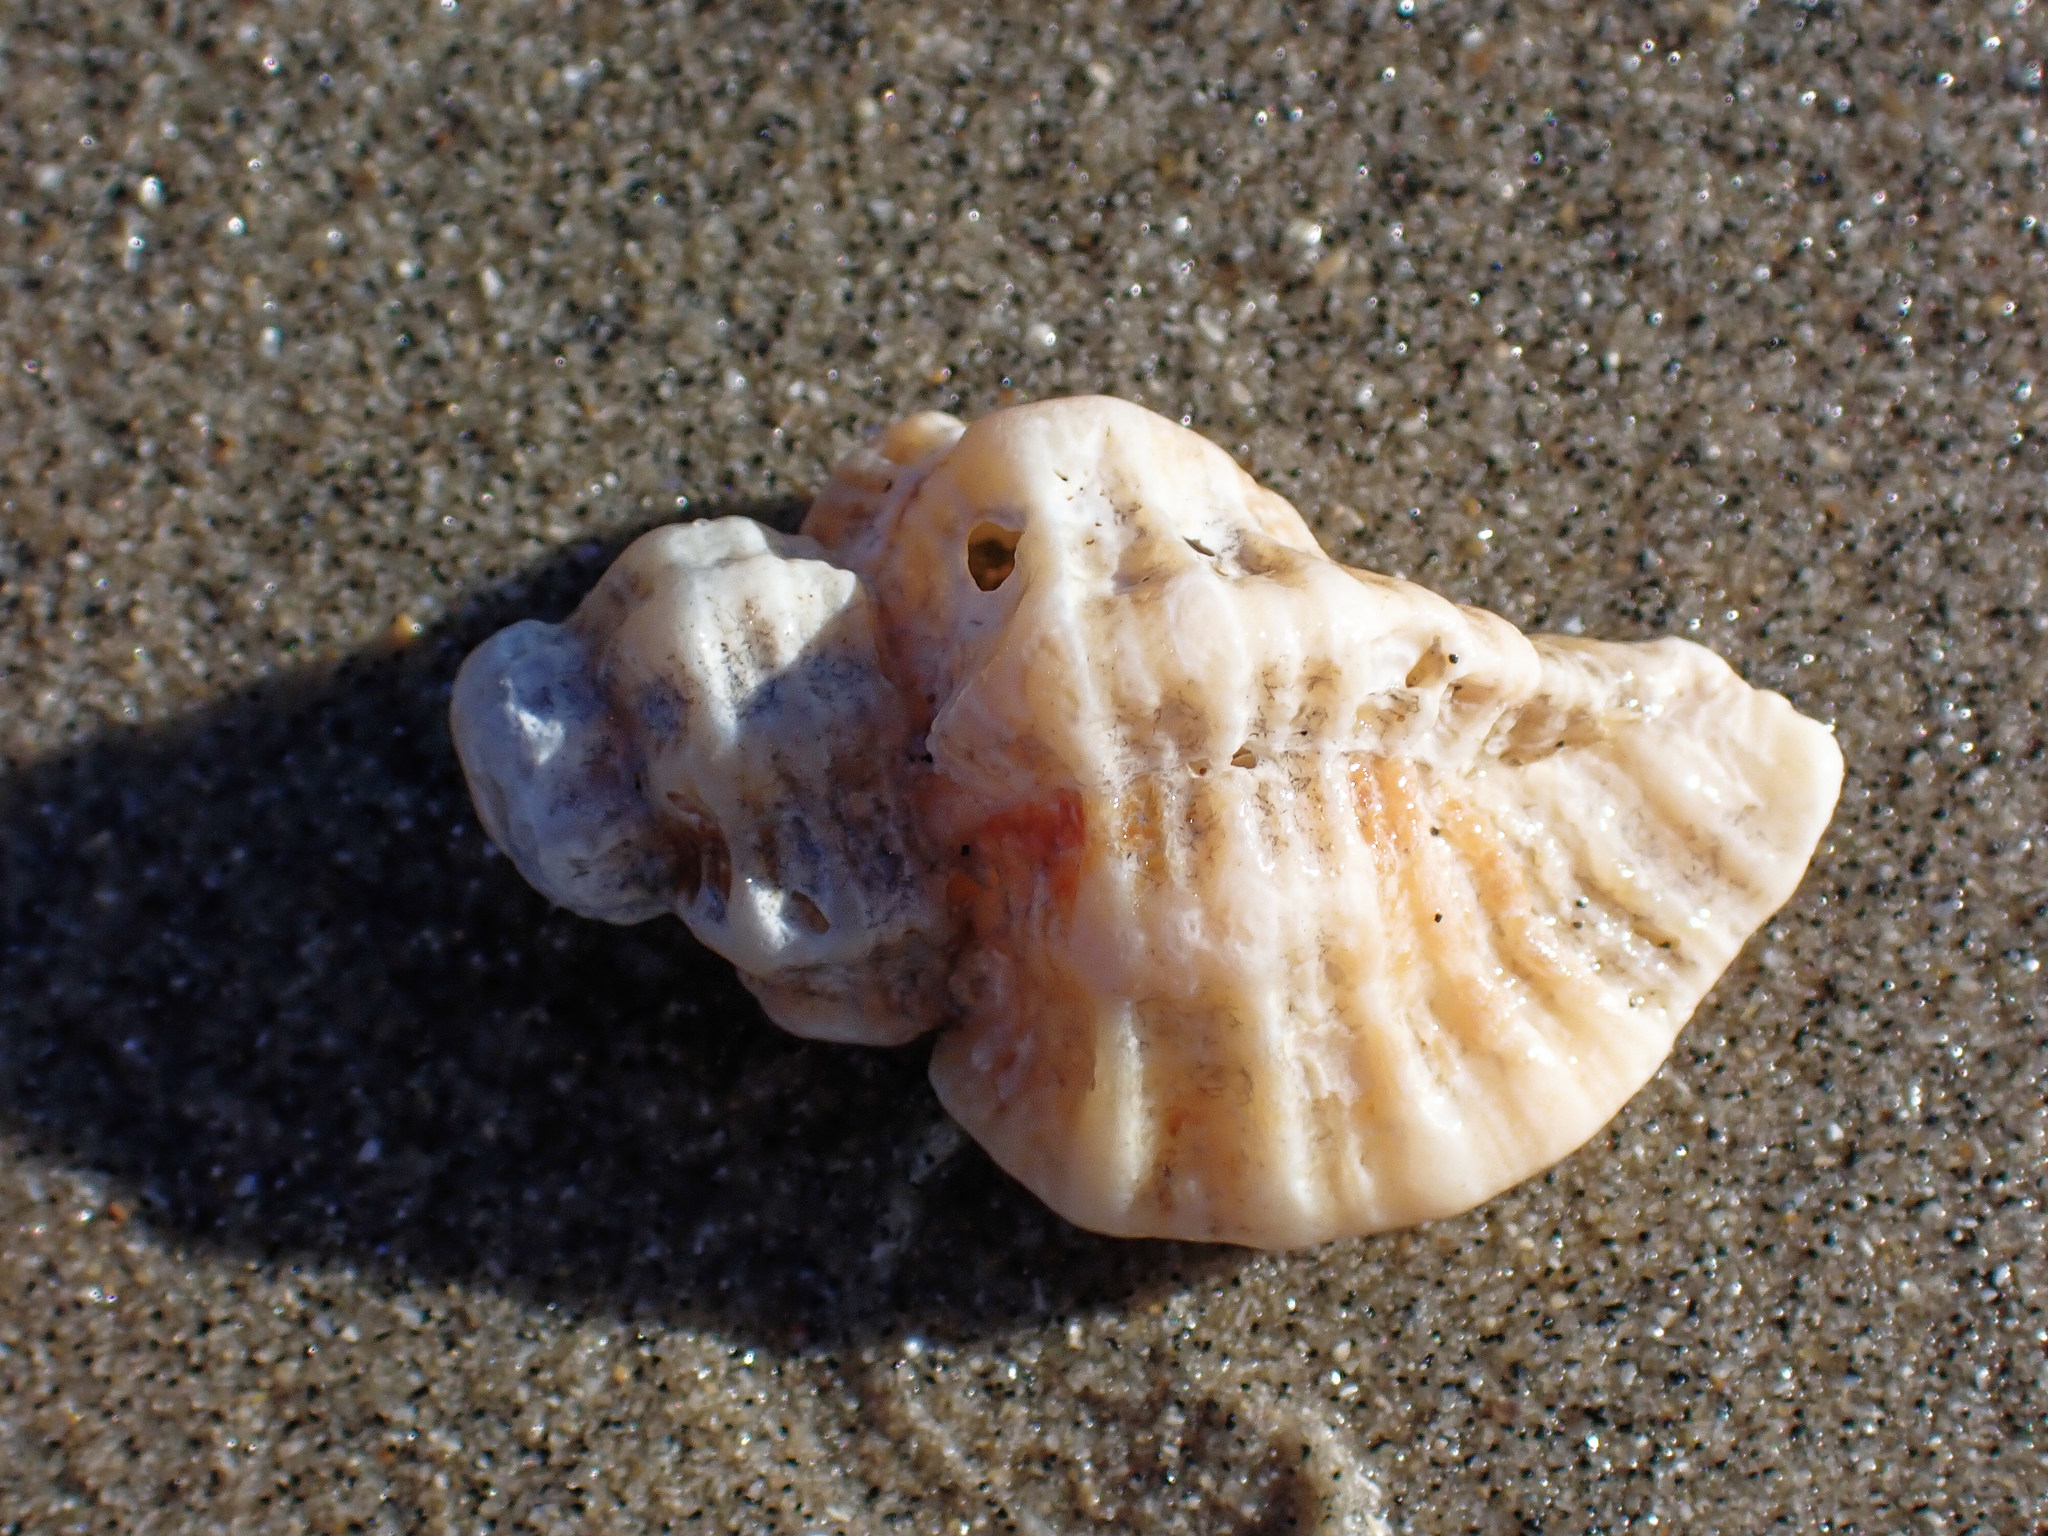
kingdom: Animalia
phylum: Mollusca
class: Gastropoda
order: Neogastropoda
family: Muricidae
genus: Ocenebra
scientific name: Ocenebra erinaceus
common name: European sting winkle
